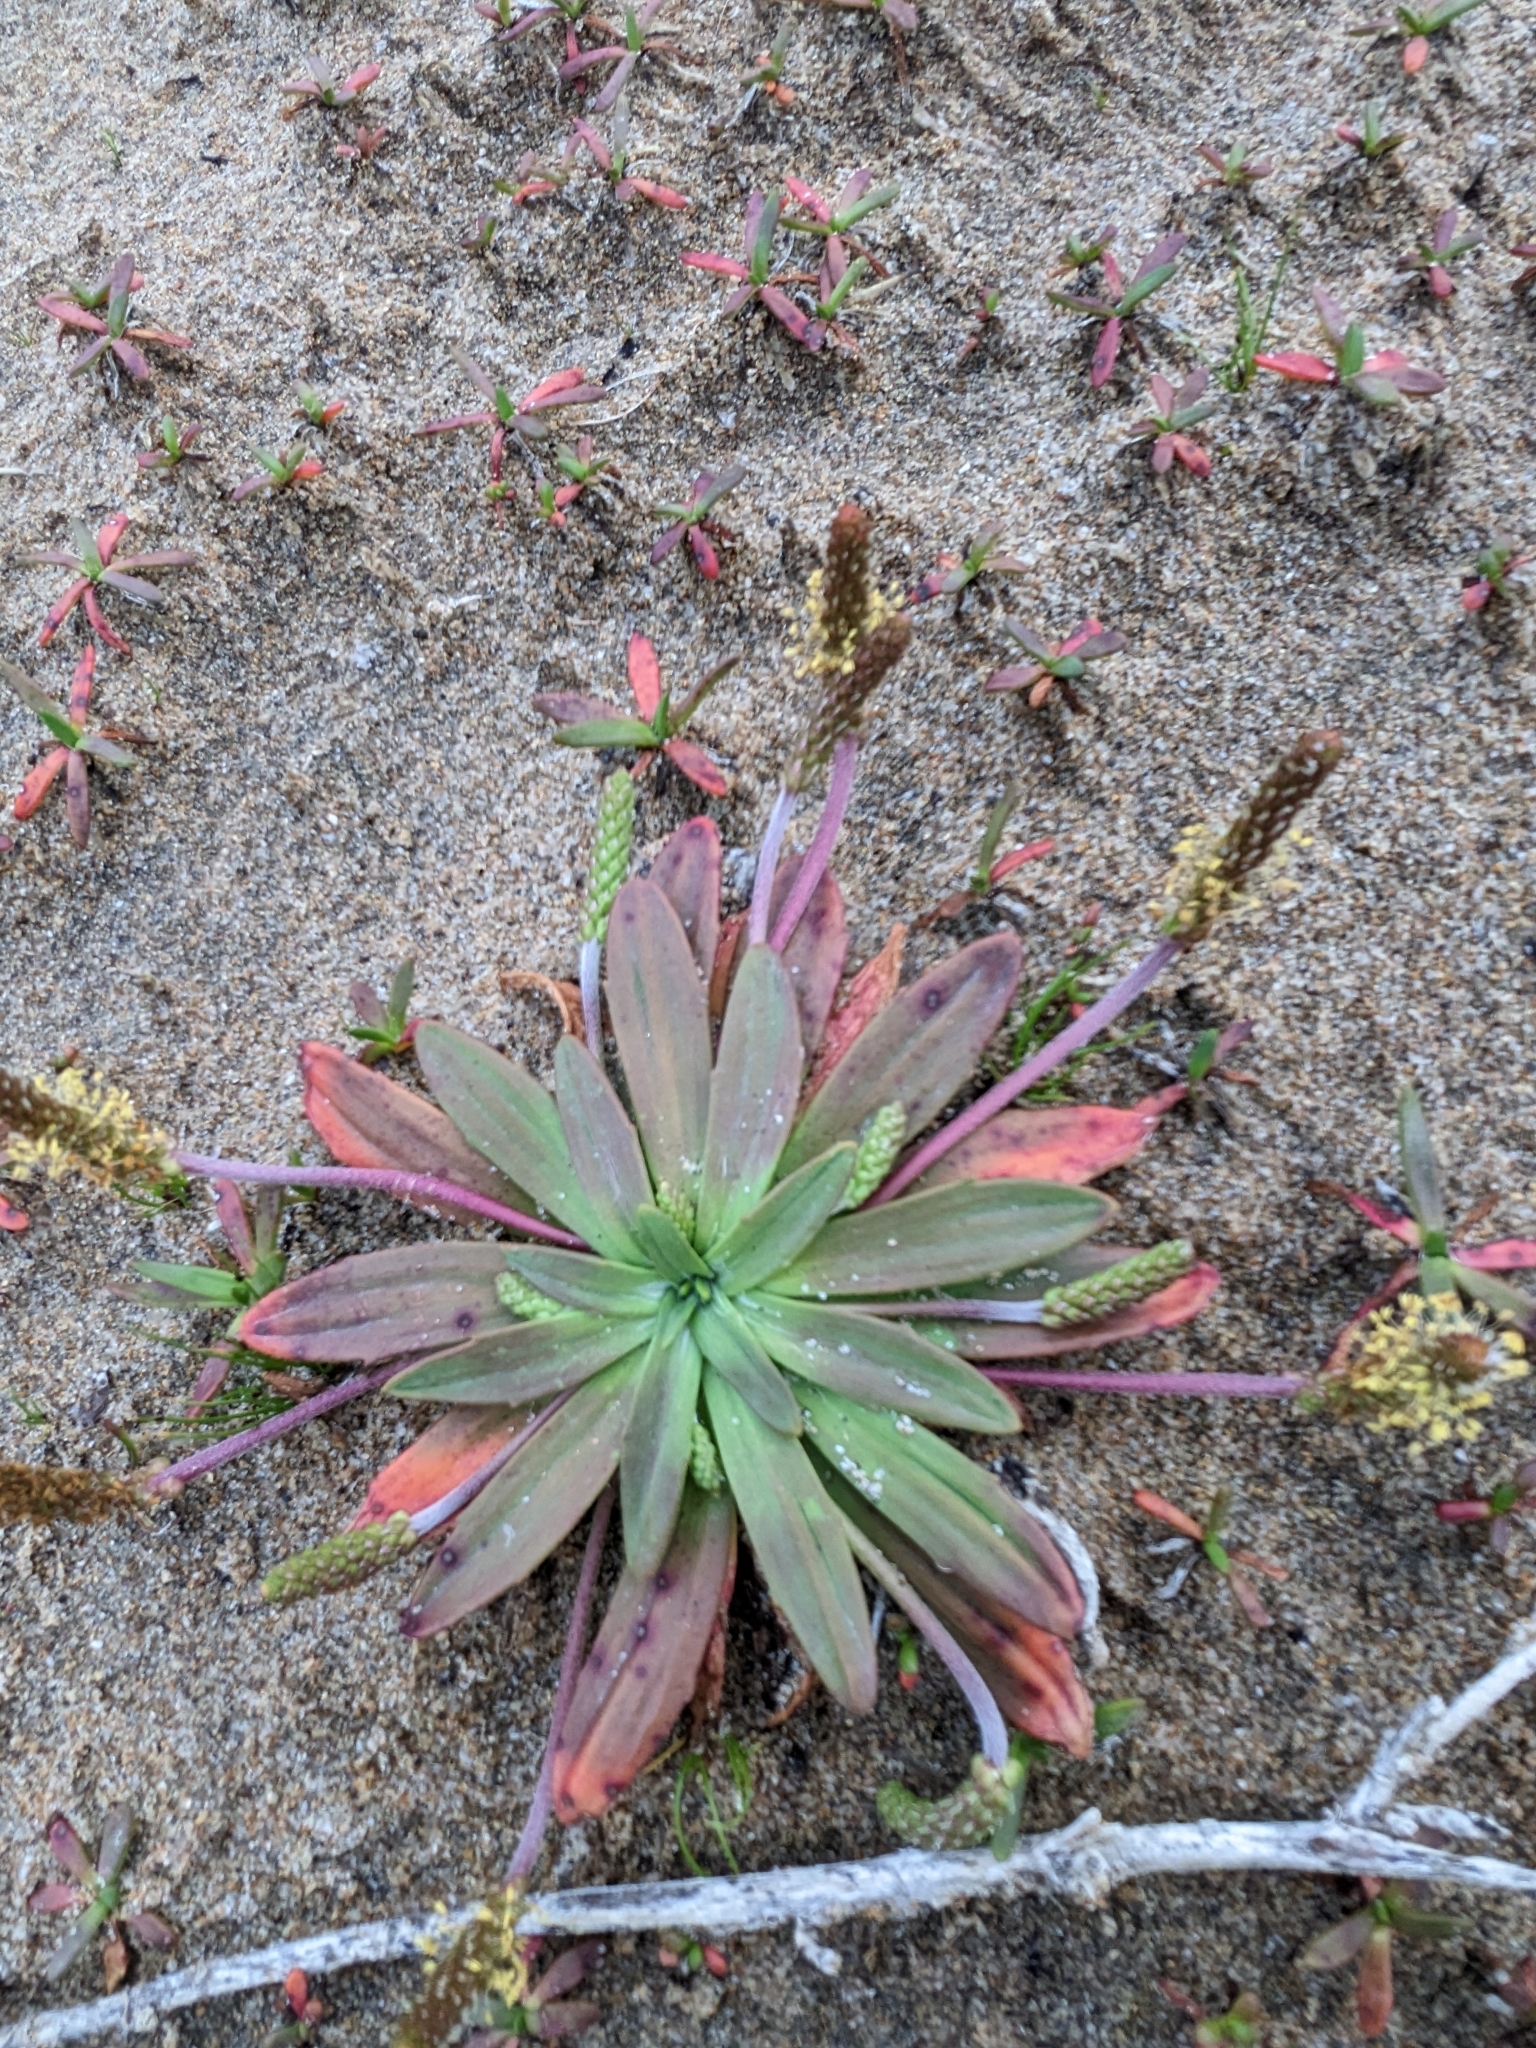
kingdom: Plantae
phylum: Tracheophyta
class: Magnoliopsida
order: Lamiales
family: Plantaginaceae
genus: Plantago
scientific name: Plantago maritima
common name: Sea plantain
